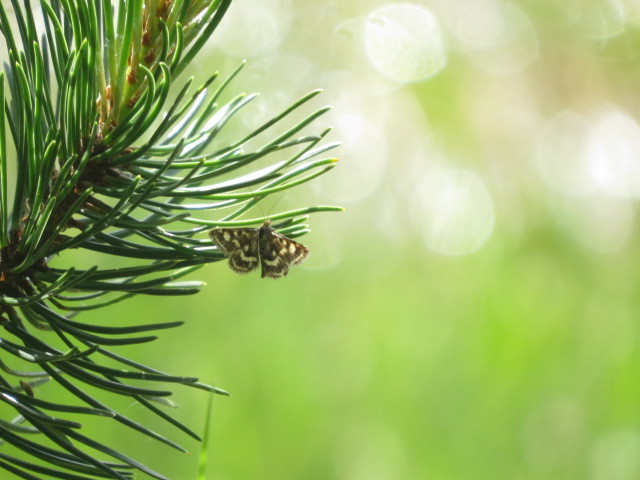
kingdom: Animalia
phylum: Arthropoda
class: Insecta
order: Lepidoptera
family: Crambidae
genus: Pyrausta
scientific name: Pyrausta purpuralis
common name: Common purple & gold
